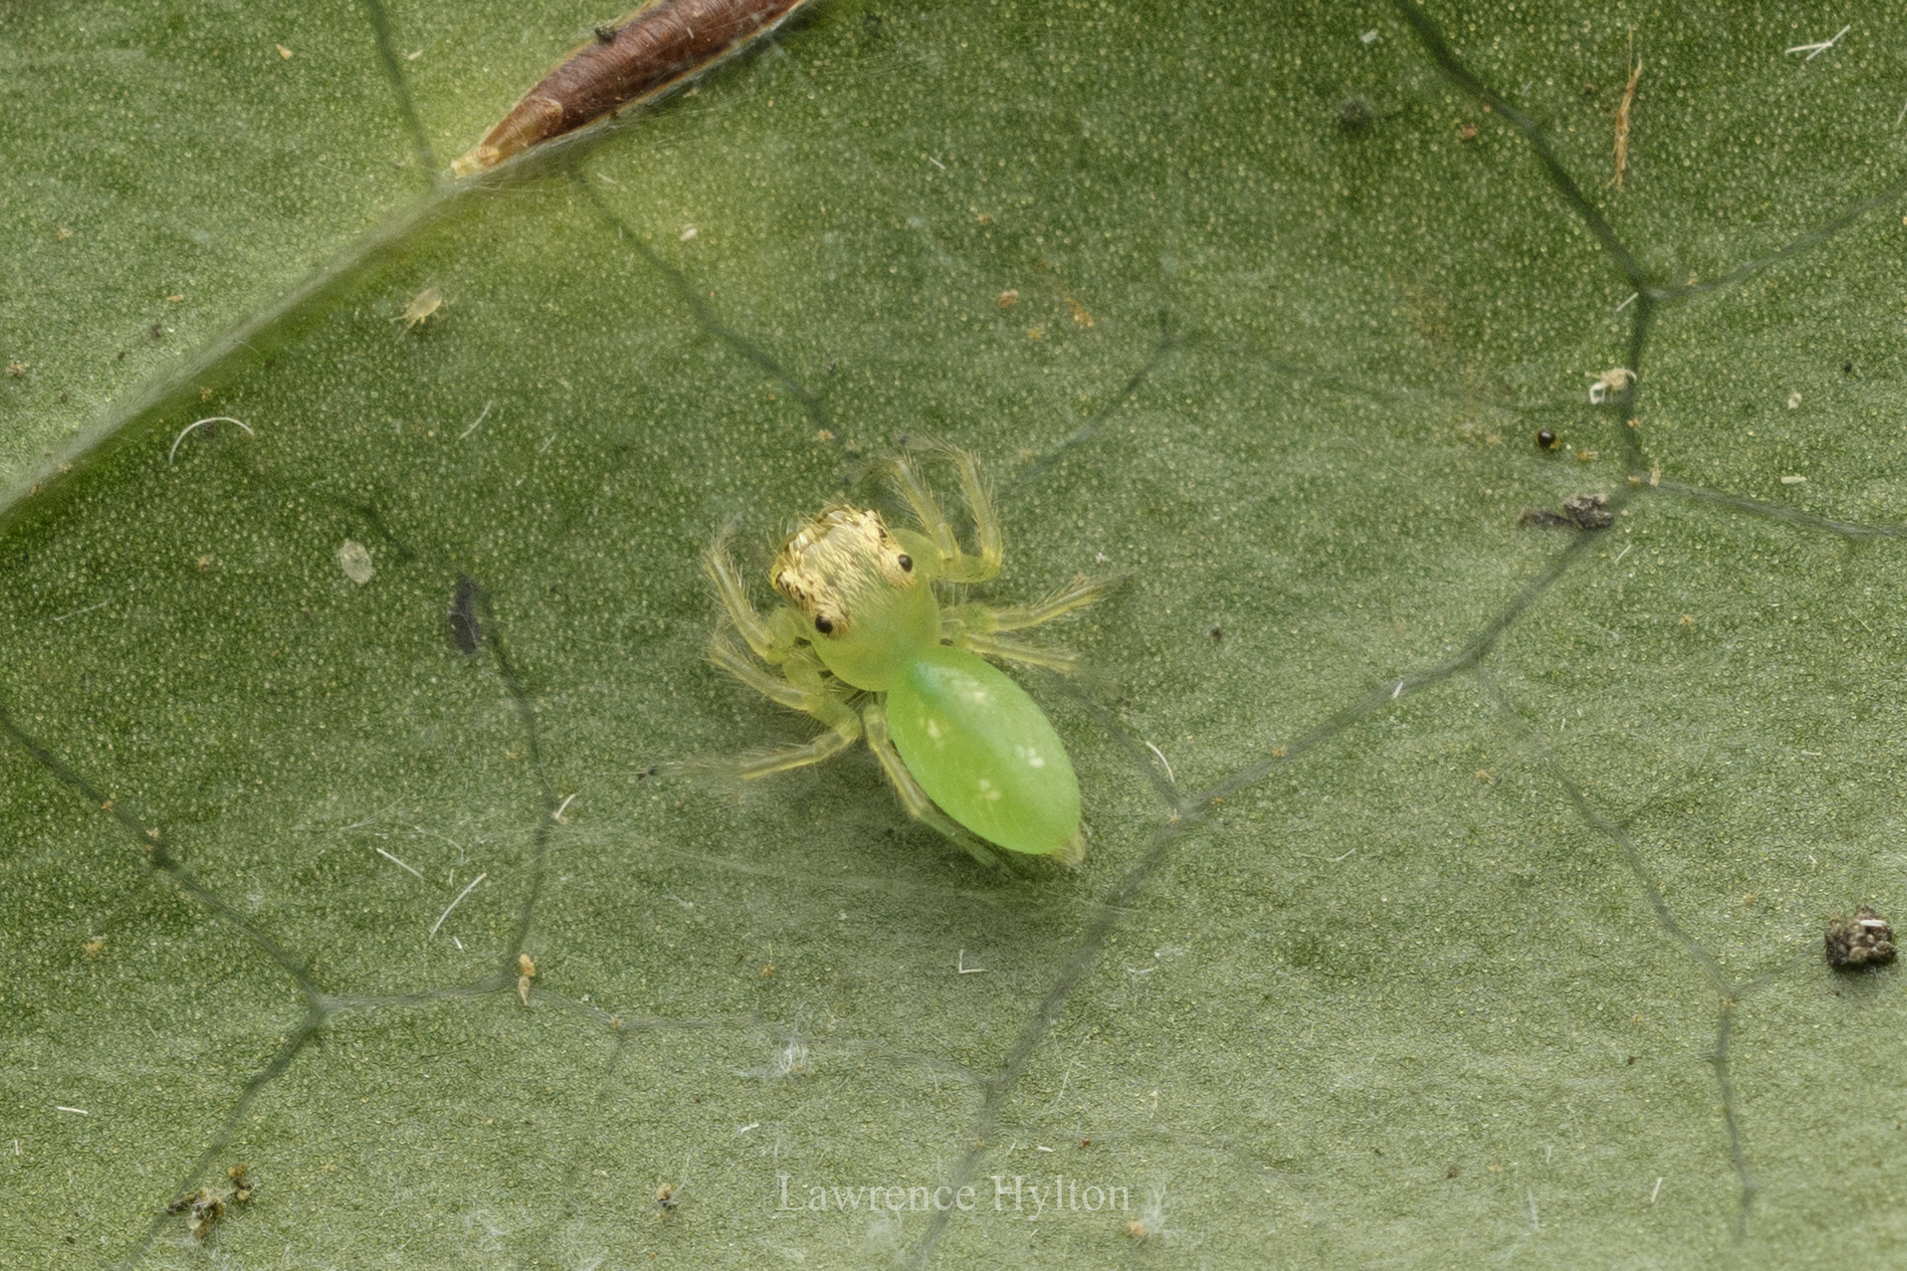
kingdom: Animalia
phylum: Arthropoda
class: Arachnida
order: Araneae
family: Salticidae
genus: Epeus
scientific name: Epeus glorius
